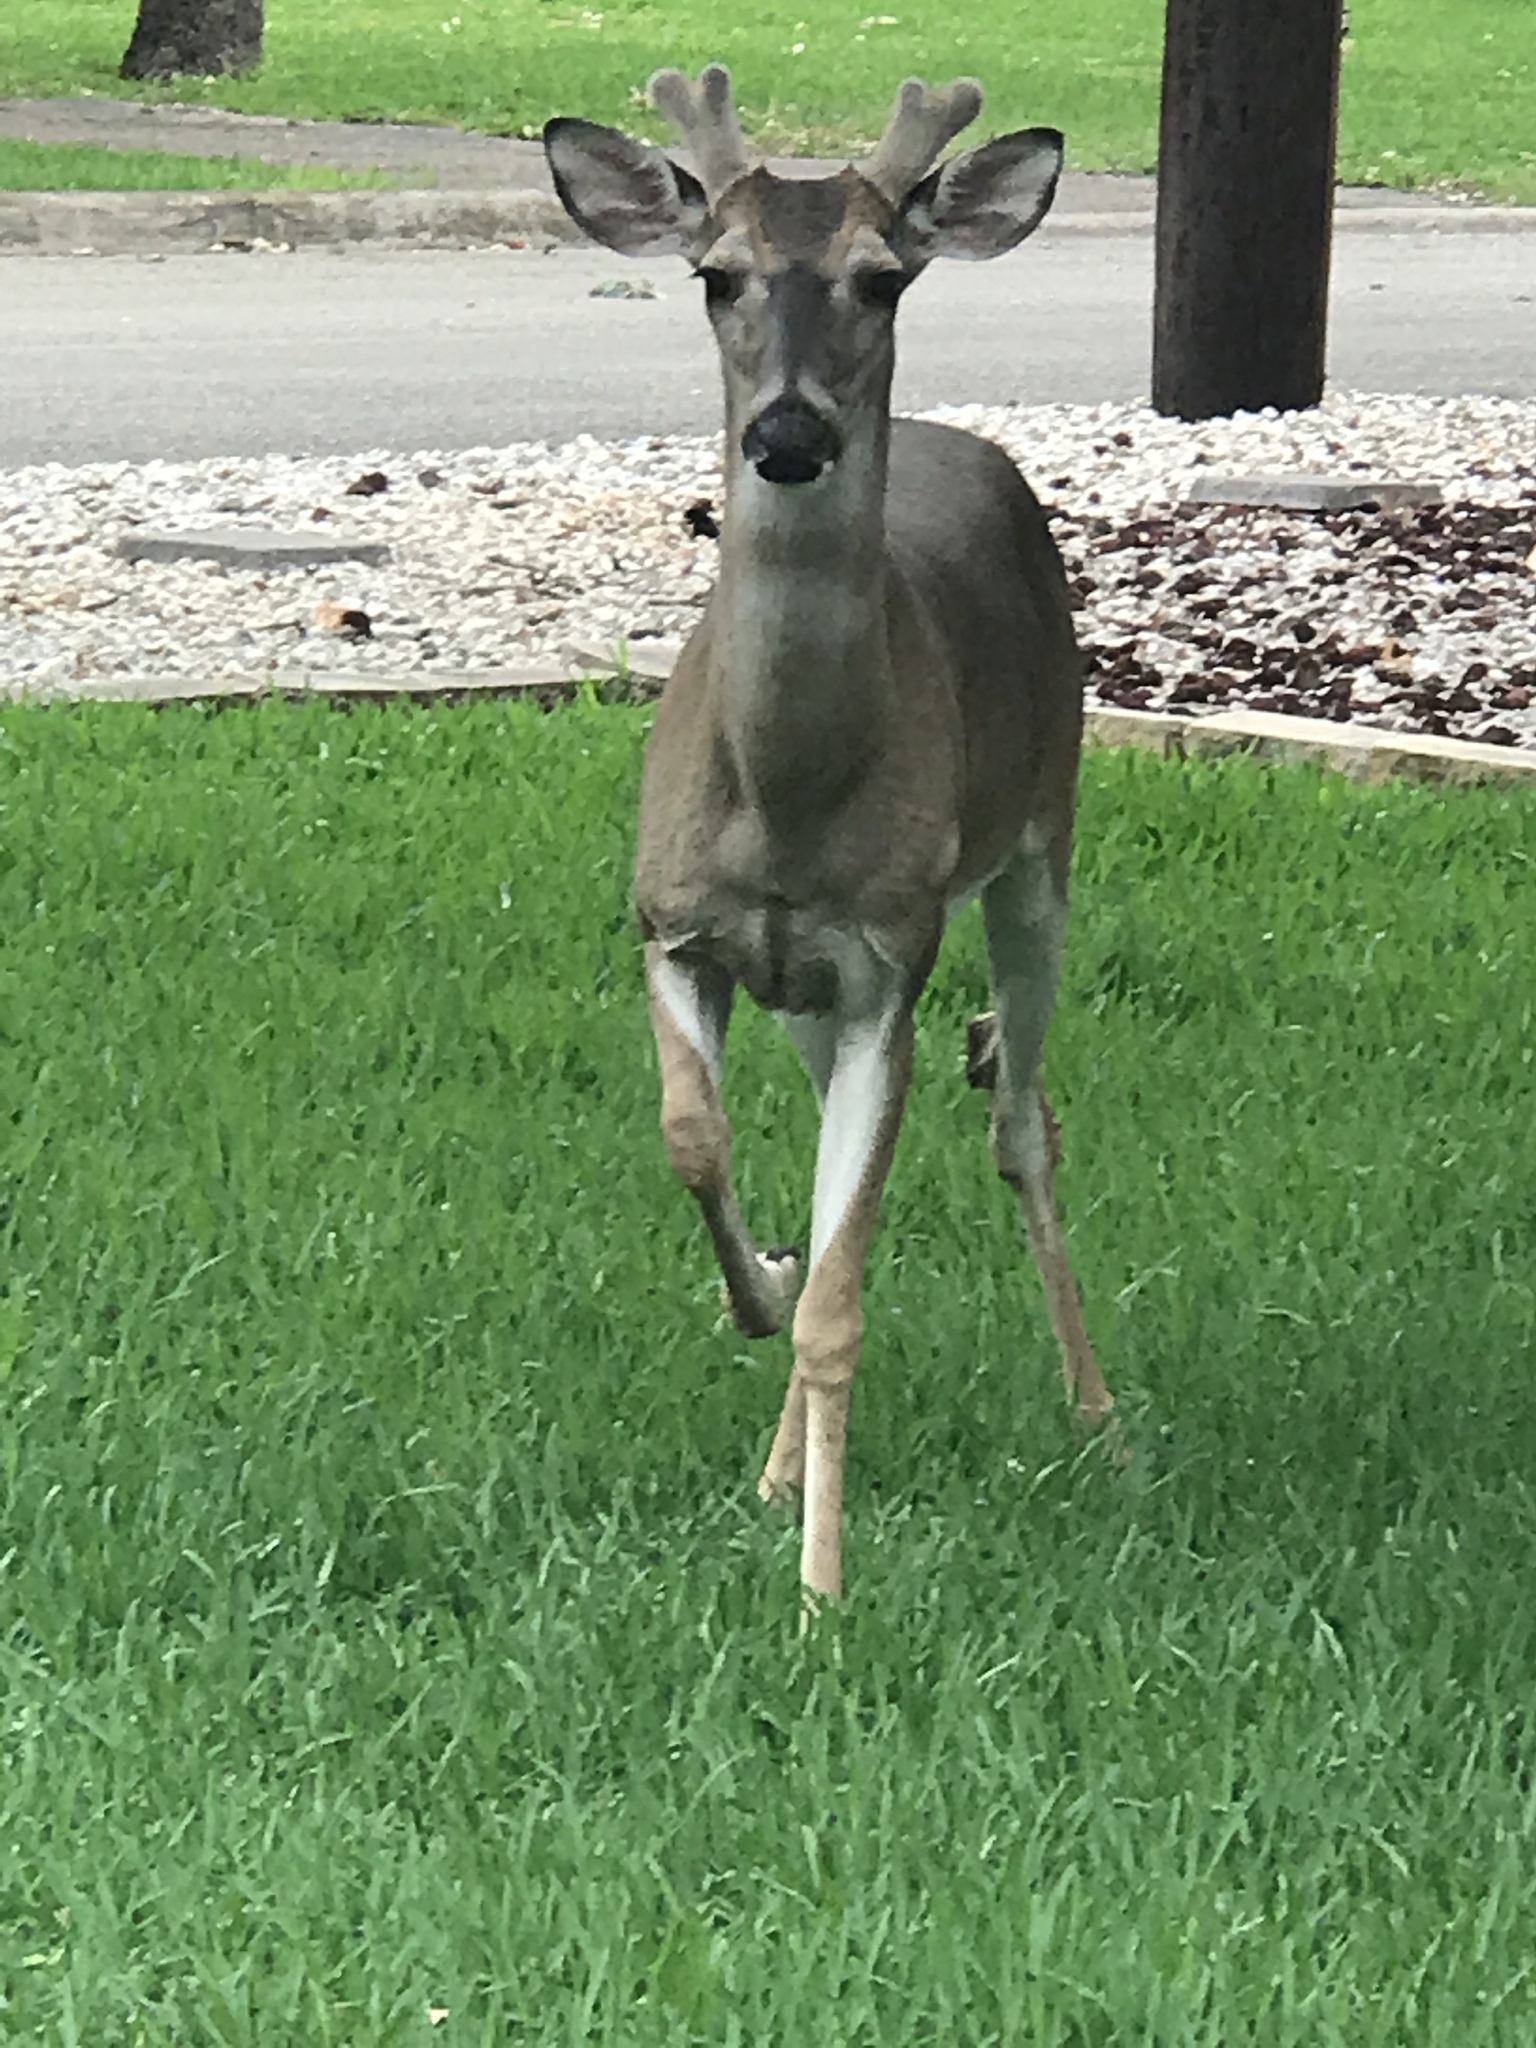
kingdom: Animalia
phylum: Chordata
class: Mammalia
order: Artiodactyla
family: Cervidae
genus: Odocoileus
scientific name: Odocoileus virginianus
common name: White-tailed deer
